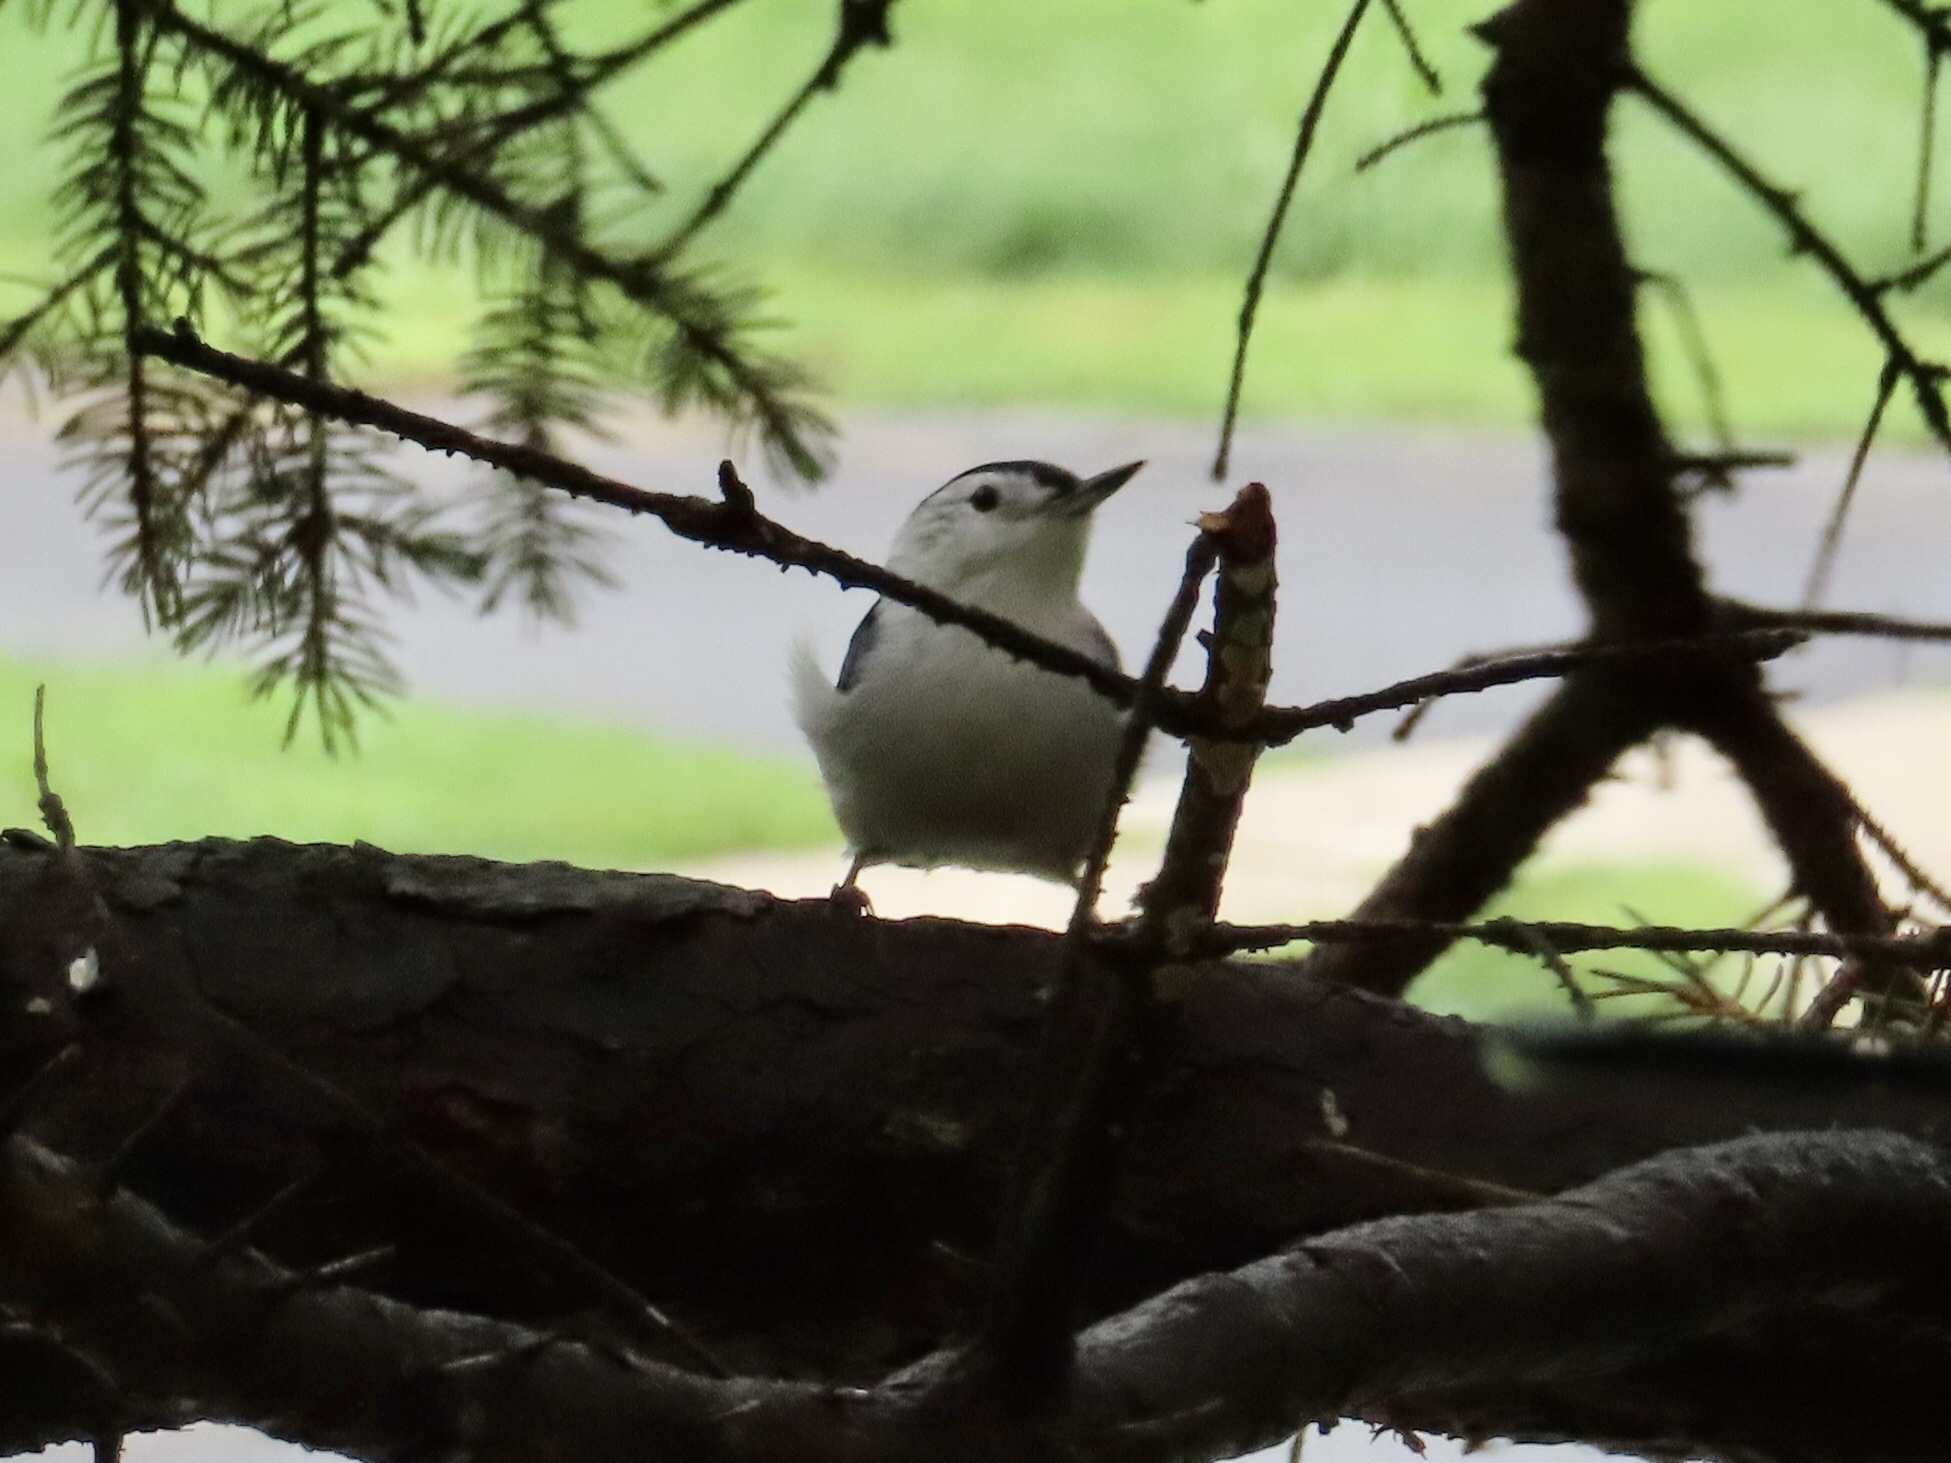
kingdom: Animalia
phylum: Chordata
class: Aves
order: Passeriformes
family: Sittidae
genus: Sitta
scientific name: Sitta carolinensis
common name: White-breasted nuthatch
